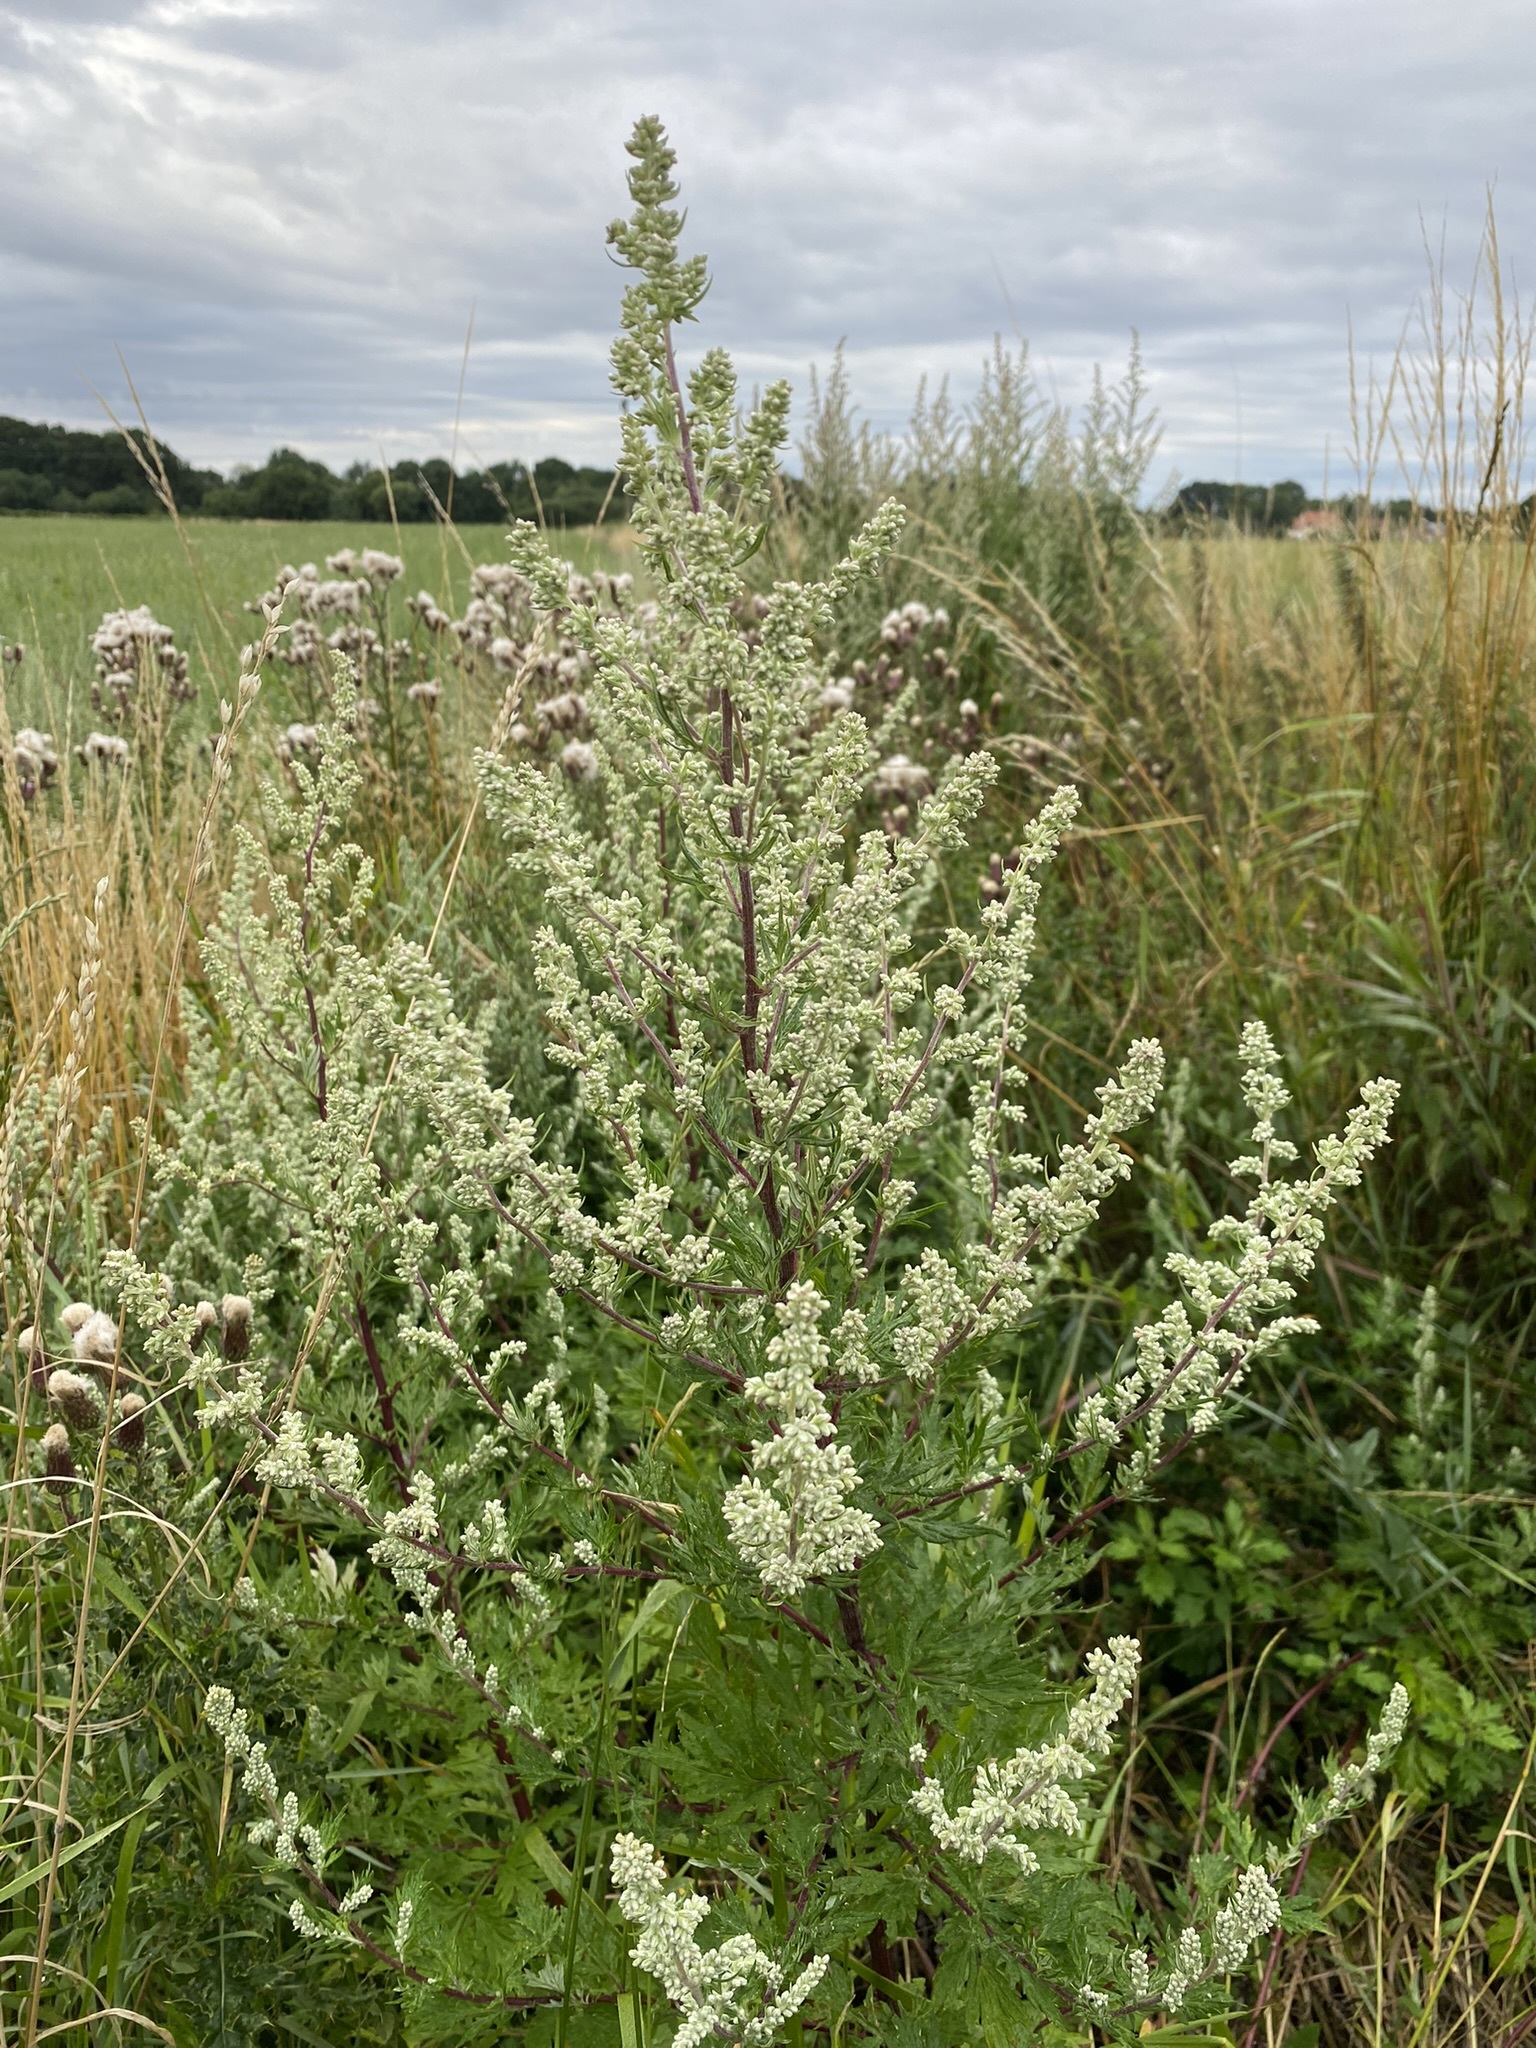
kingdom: Plantae
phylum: Tracheophyta
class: Magnoliopsida
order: Asterales
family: Asteraceae
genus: Artemisia
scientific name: Artemisia vulgaris
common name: Mugwort
